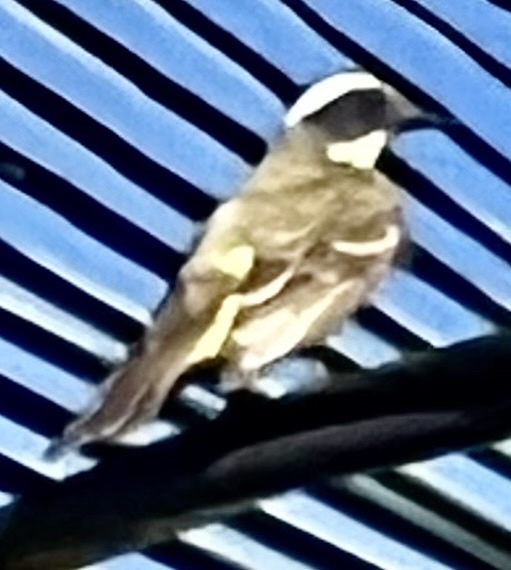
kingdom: Animalia
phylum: Chordata
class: Aves
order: Passeriformes
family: Tyrannidae
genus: Myiozetetes
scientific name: Myiozetetes similis
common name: Social flycatcher
